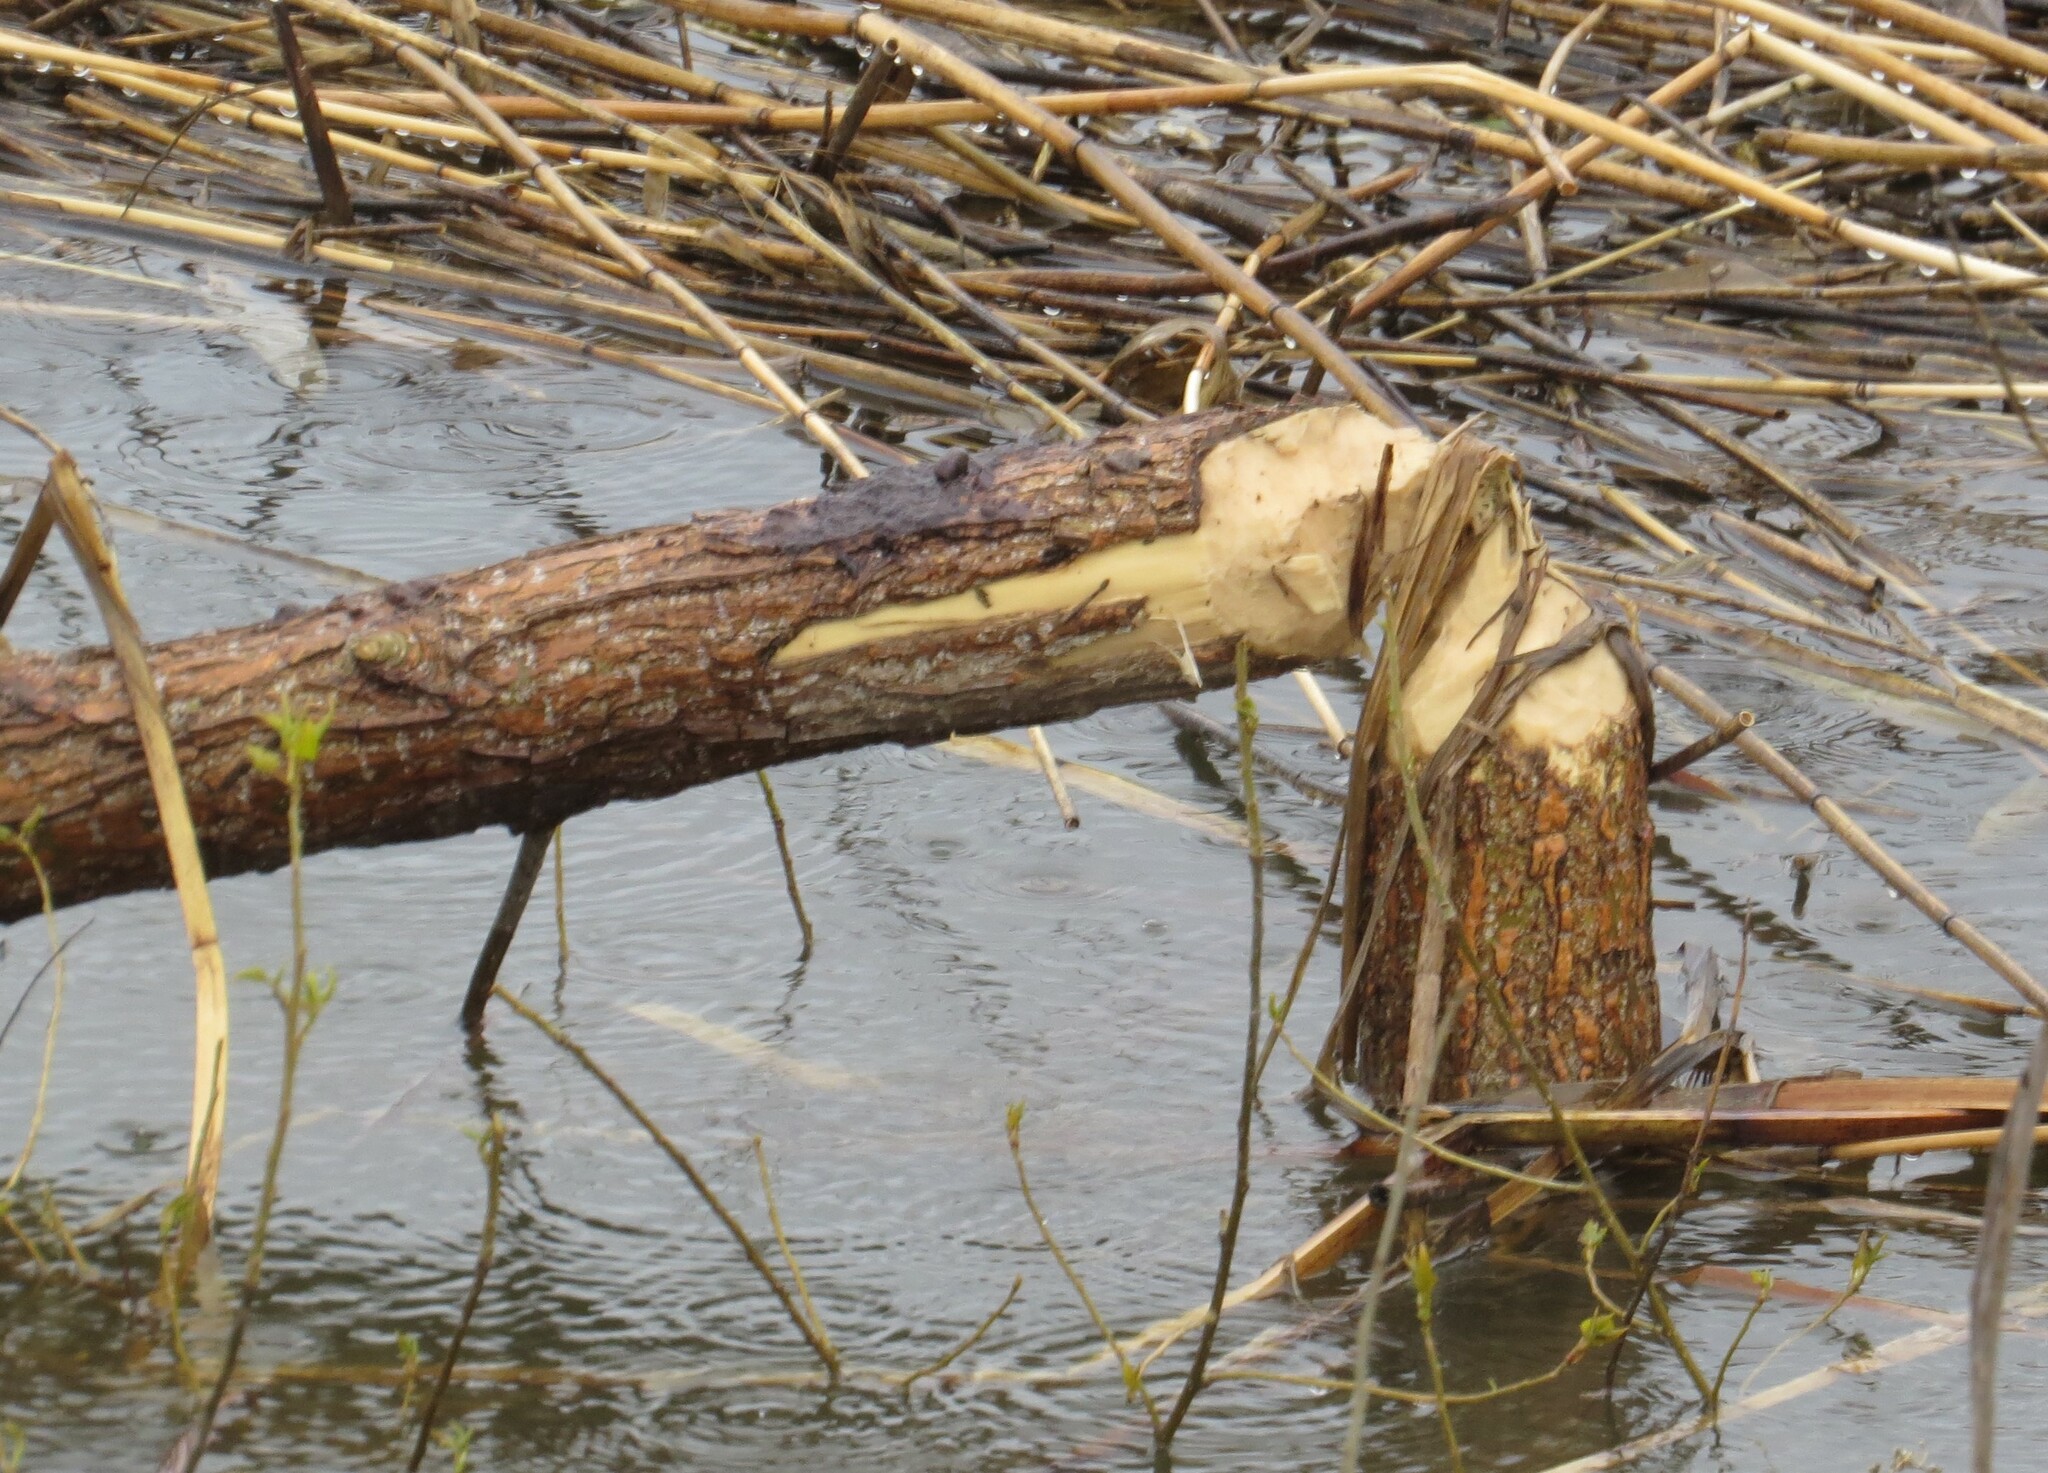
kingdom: Animalia
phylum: Chordata
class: Mammalia
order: Rodentia
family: Castoridae
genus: Castor
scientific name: Castor canadensis
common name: American beaver
